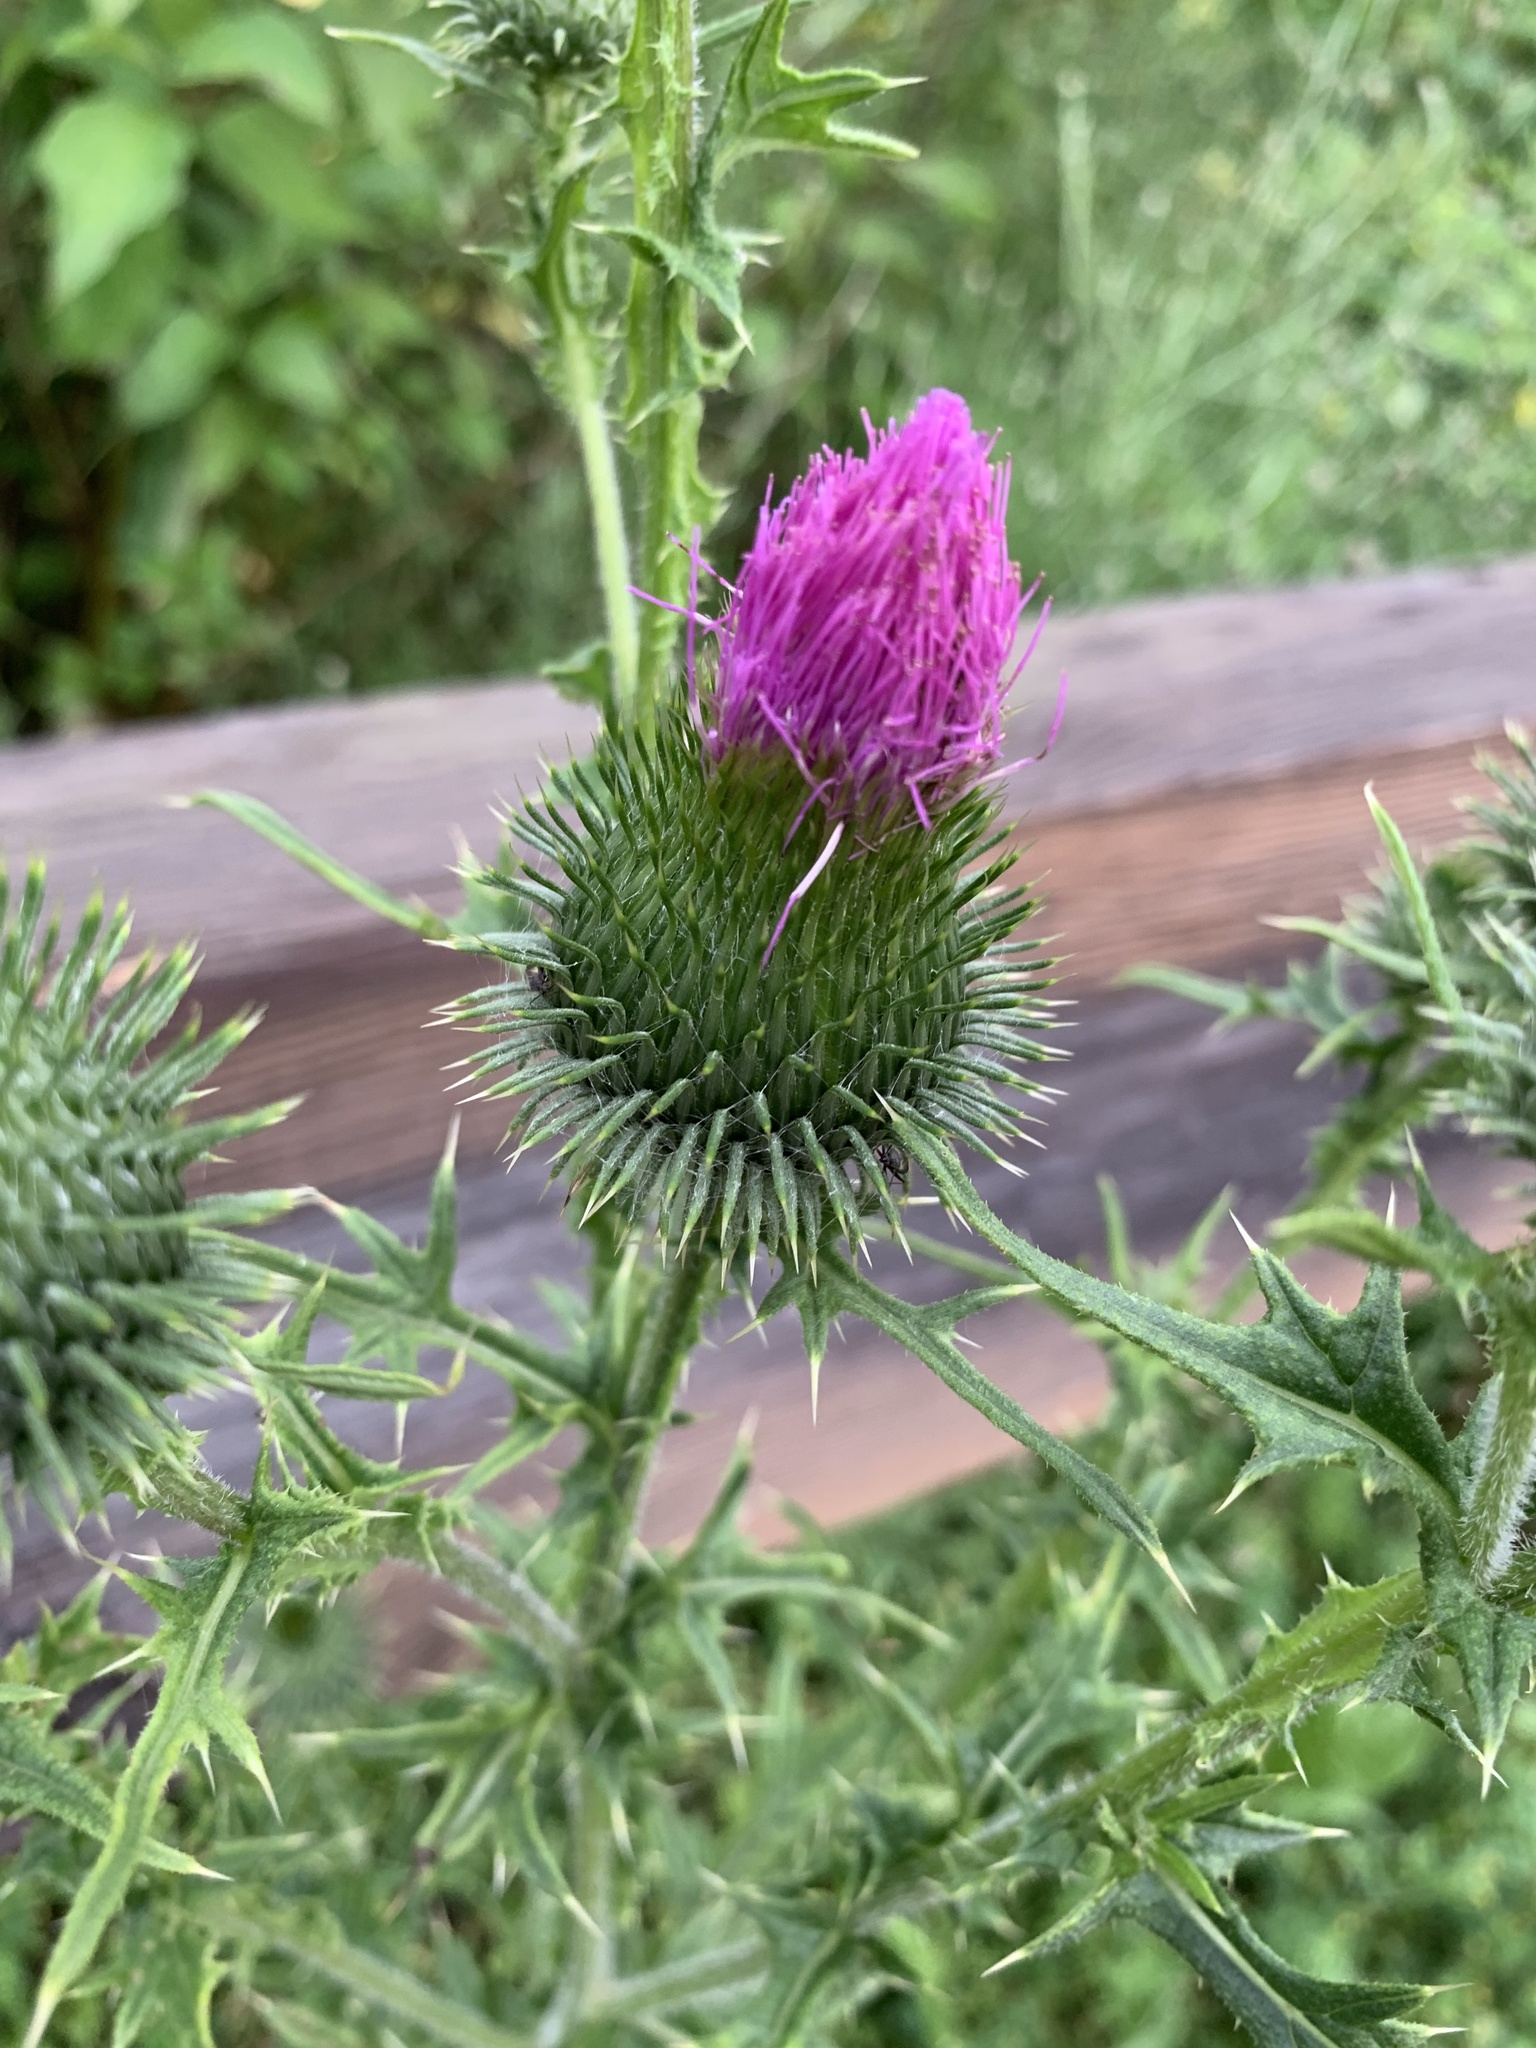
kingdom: Plantae
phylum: Tracheophyta
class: Magnoliopsida
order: Asterales
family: Asteraceae
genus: Cirsium
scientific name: Cirsium vulgare
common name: Bull thistle
